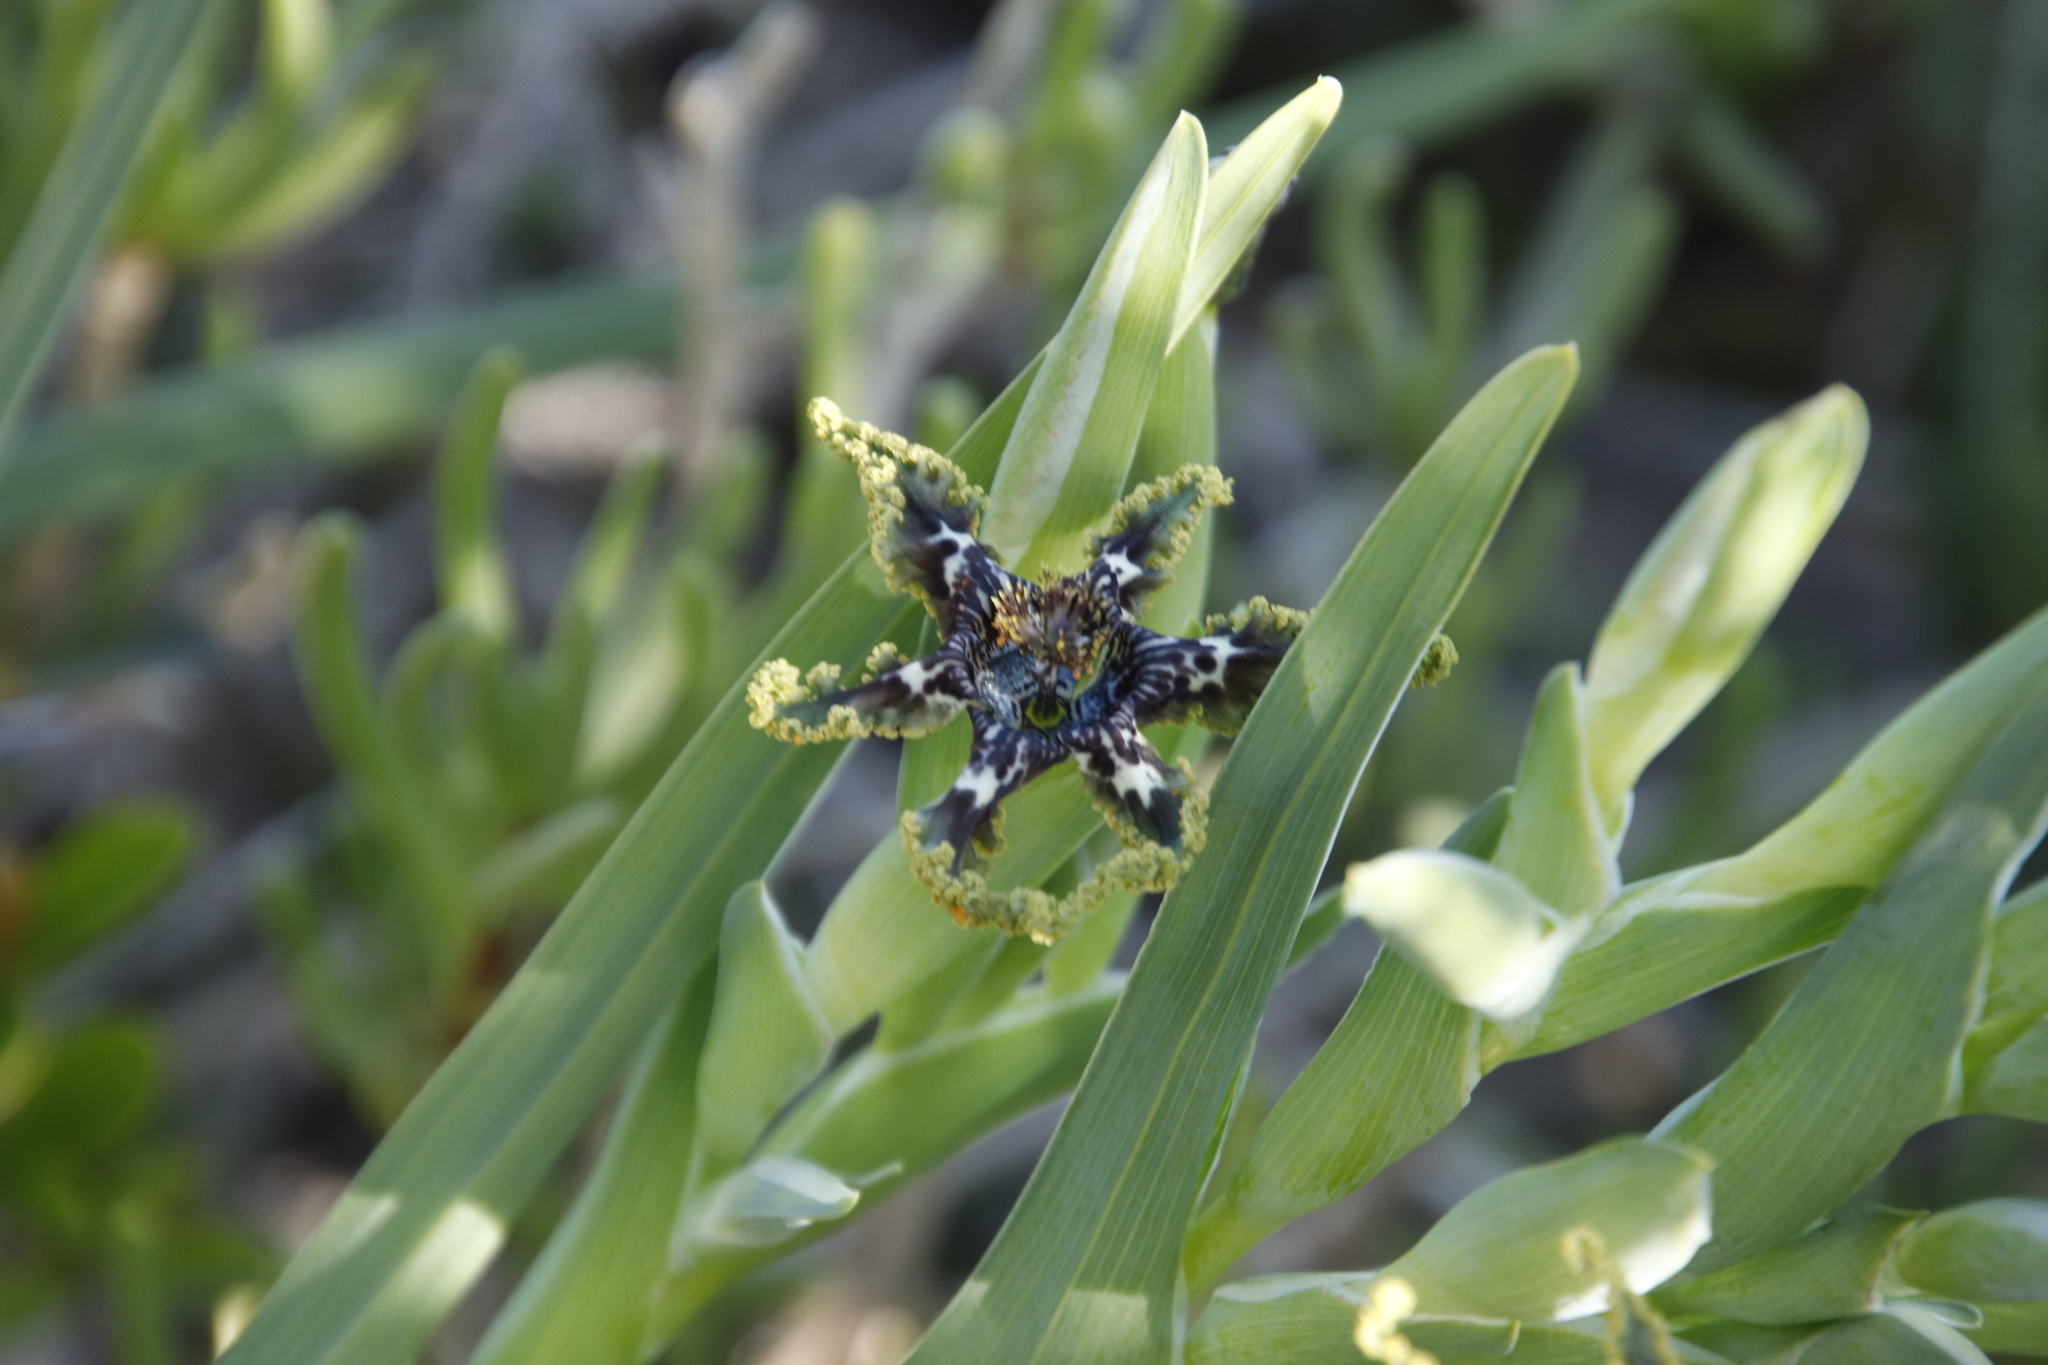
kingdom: Plantae
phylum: Tracheophyta
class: Liliopsida
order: Asparagales
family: Iridaceae
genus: Ferraria
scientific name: Ferraria crispa
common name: Black-flag
